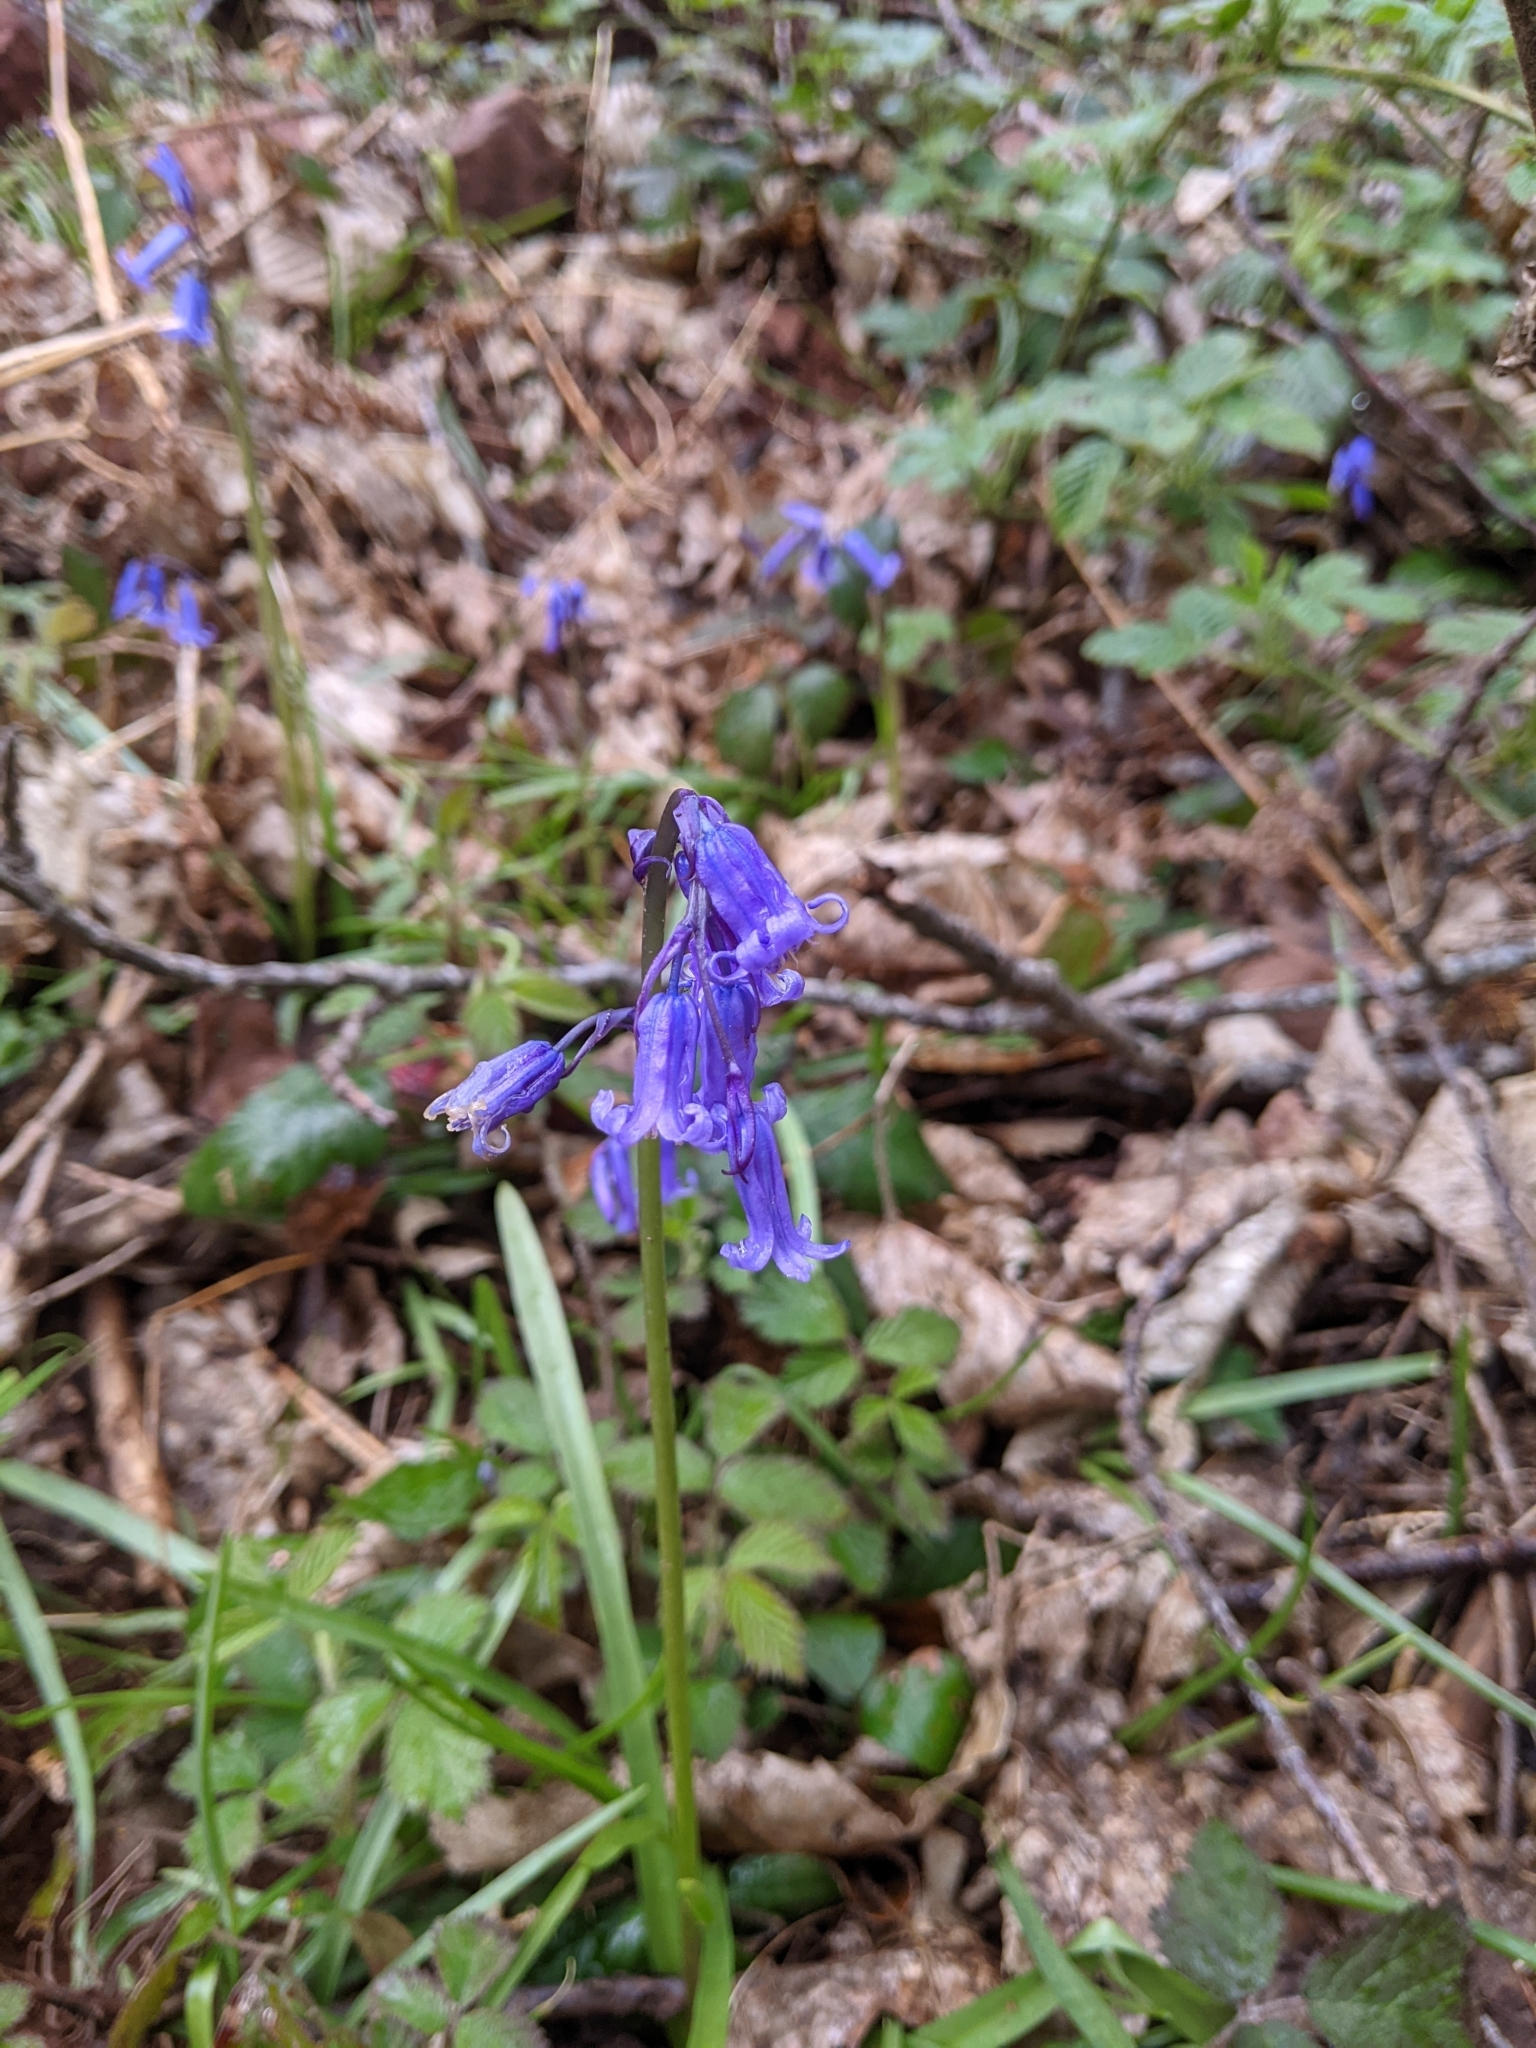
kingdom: Plantae
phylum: Tracheophyta
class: Liliopsida
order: Asparagales
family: Asparagaceae
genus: Hyacinthoides
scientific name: Hyacinthoides non-scripta
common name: Bluebell
